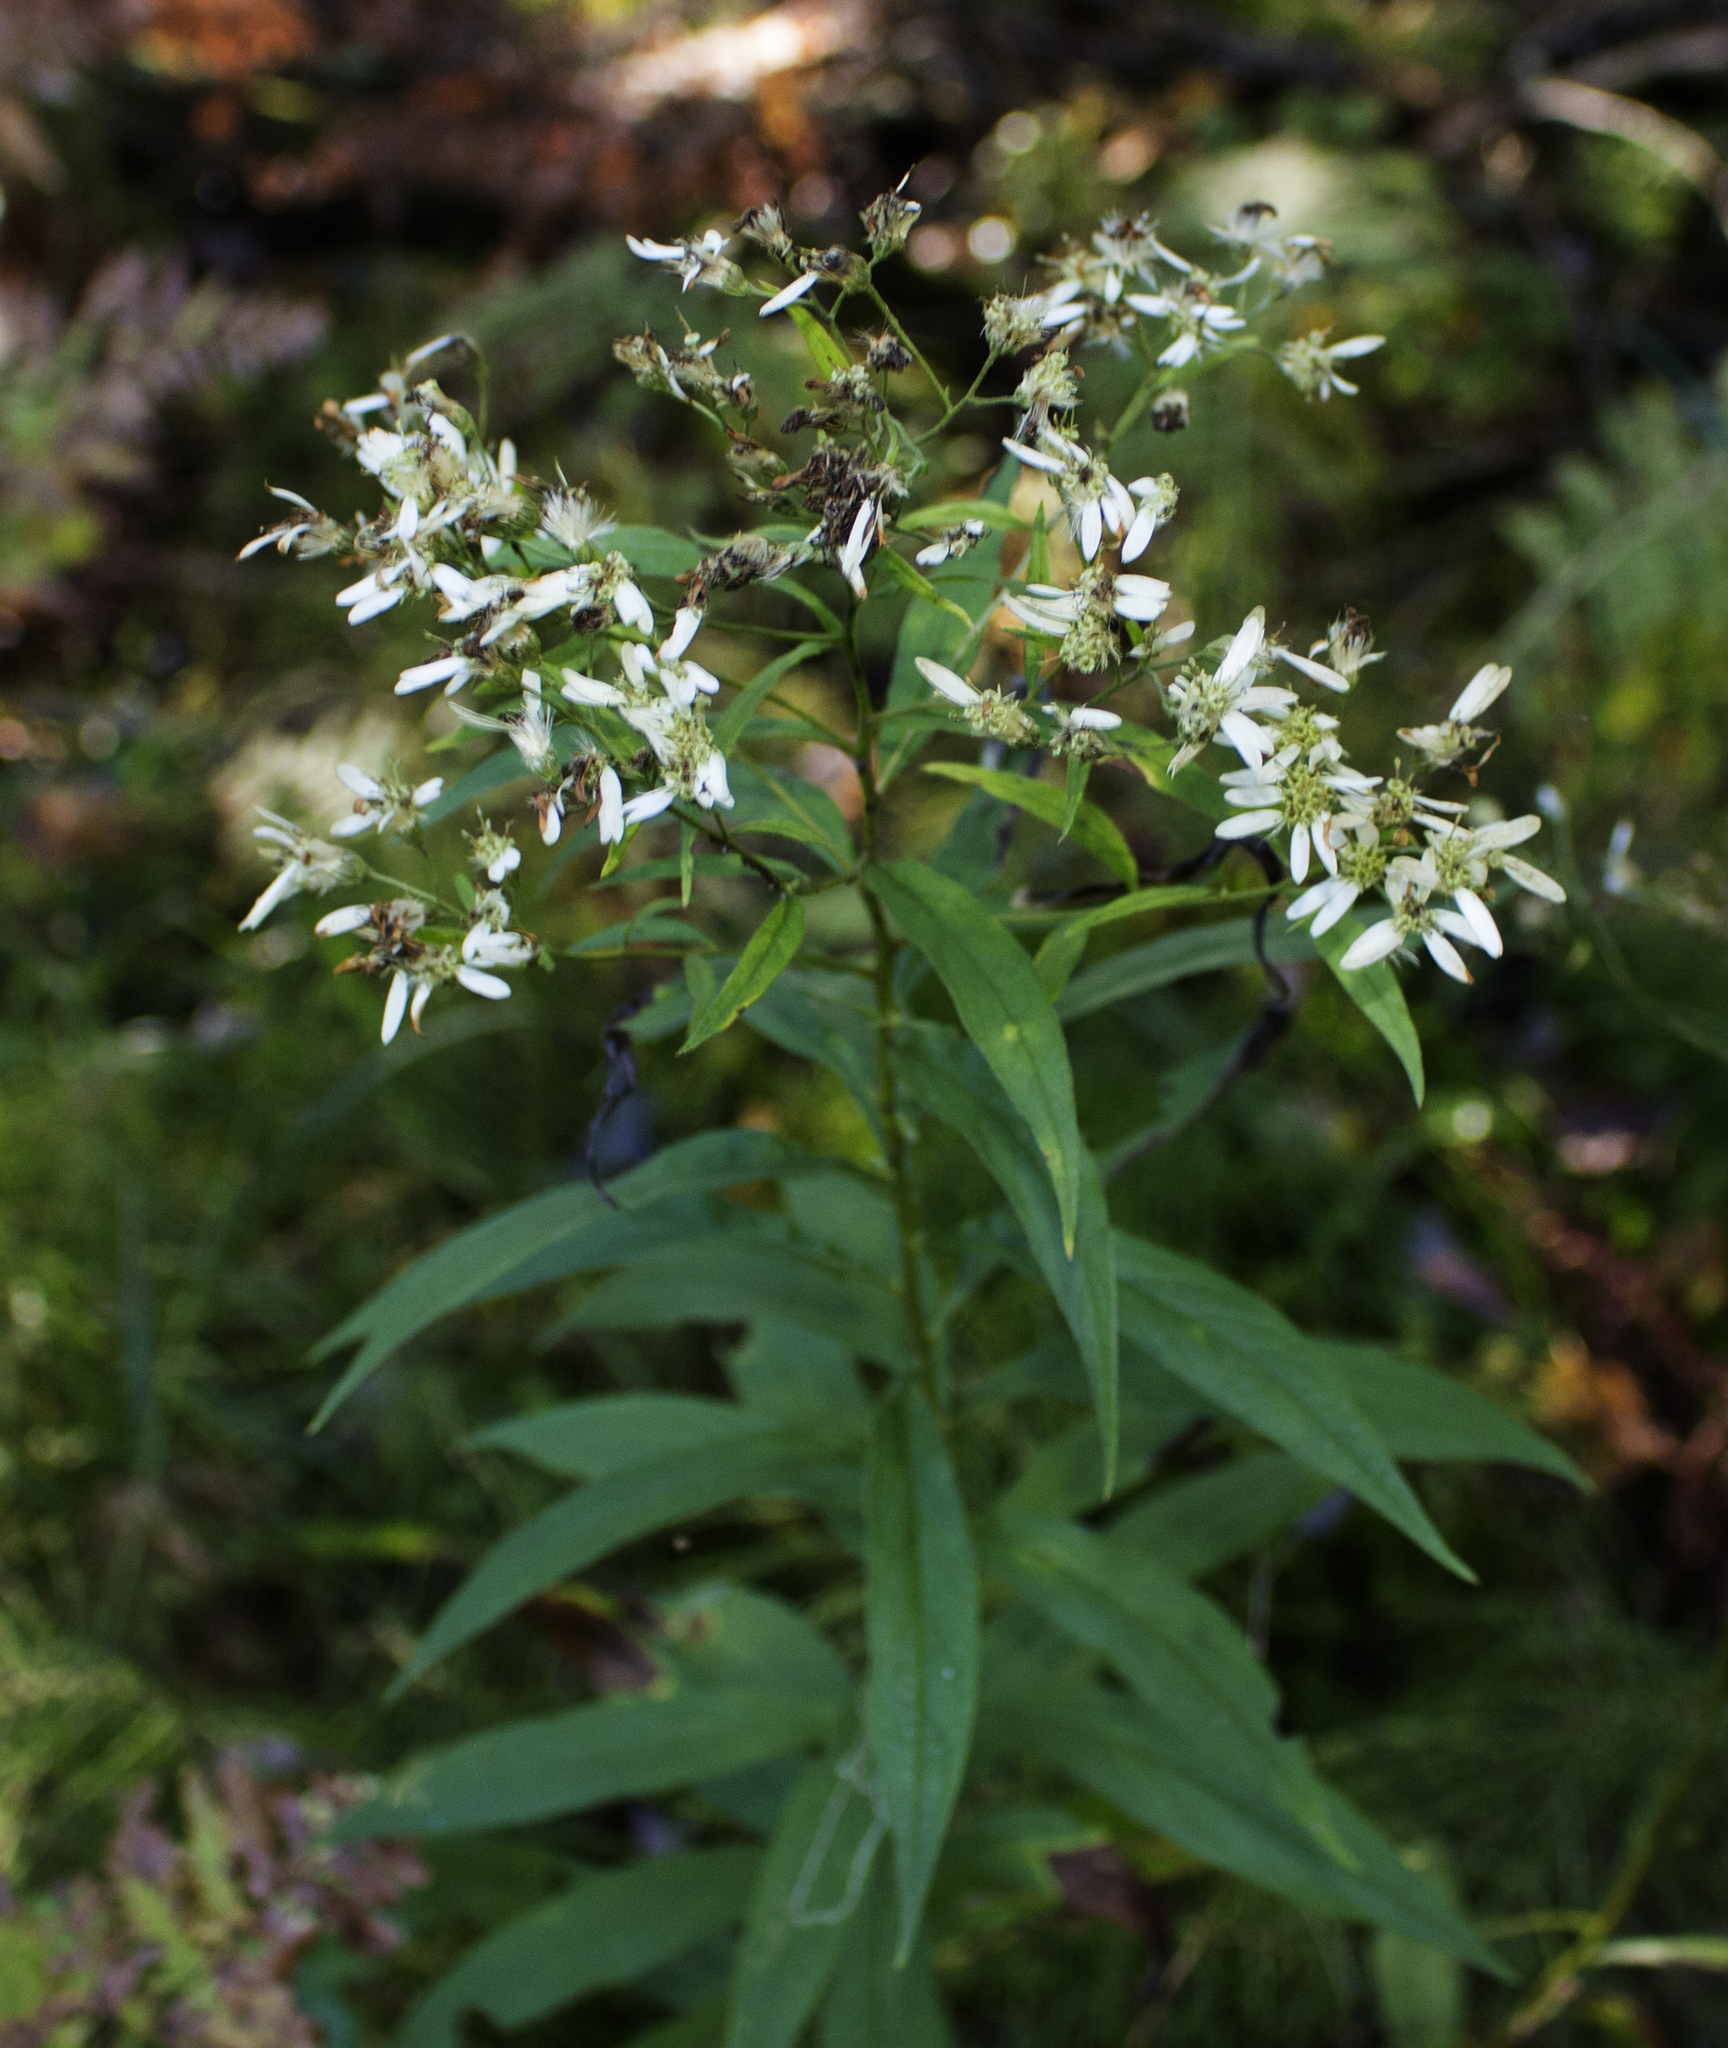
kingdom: Plantae
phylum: Tracheophyta
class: Magnoliopsida
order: Asterales
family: Asteraceae
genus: Doellingeria
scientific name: Doellingeria umbellata
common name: Flat-top white aster
